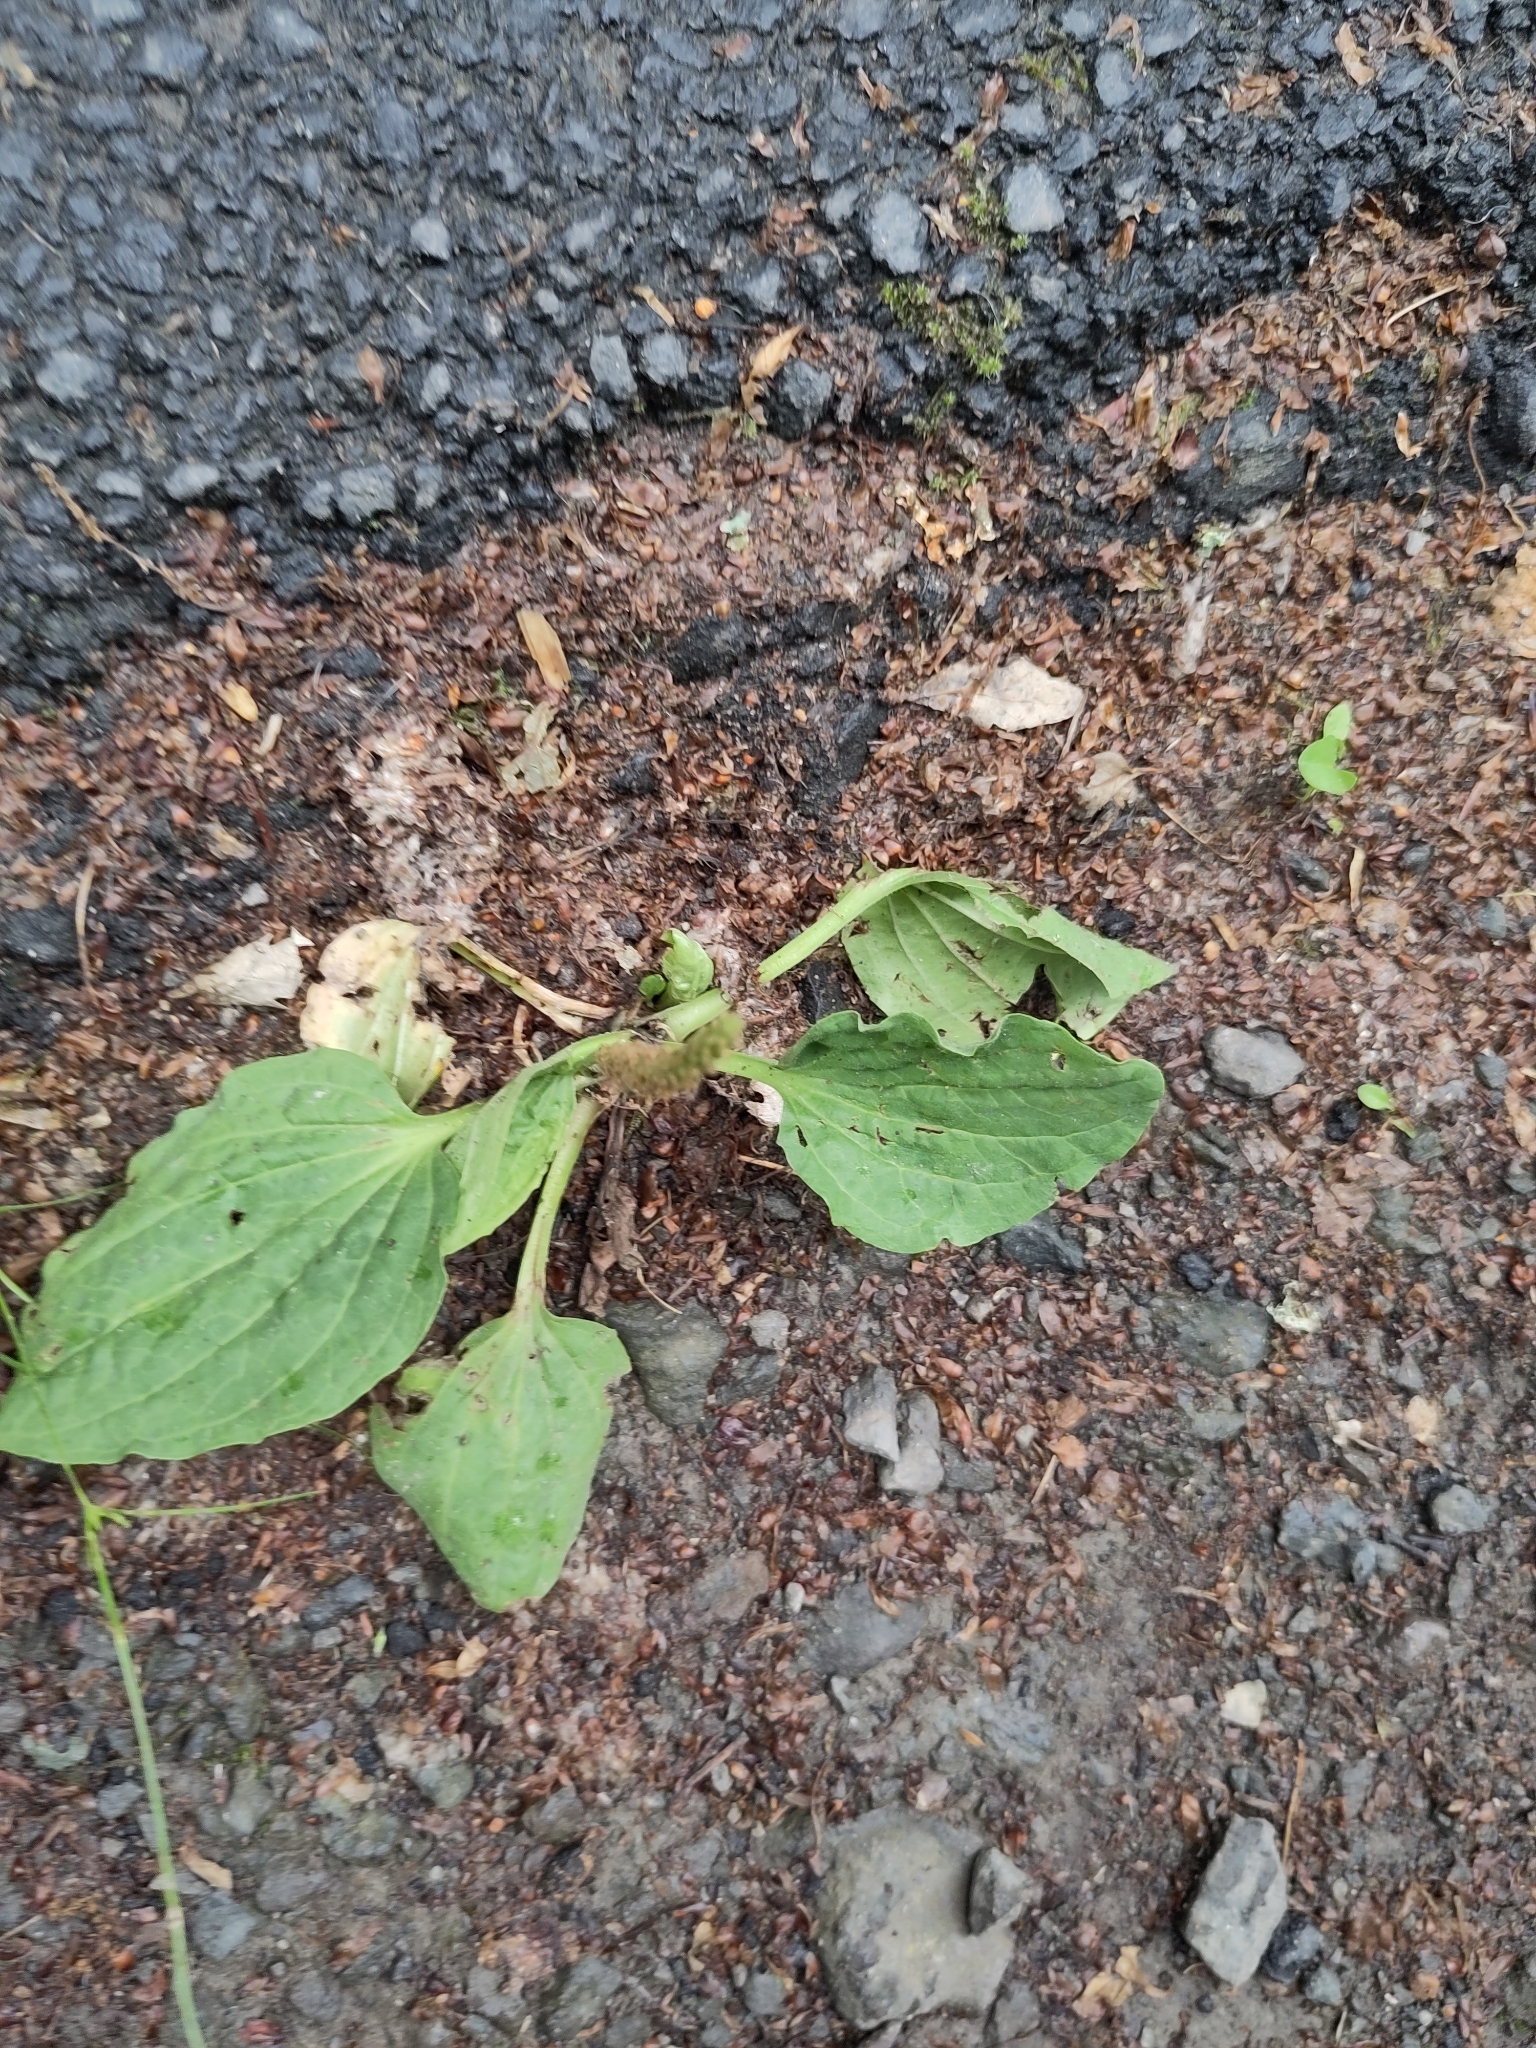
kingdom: Plantae
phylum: Tracheophyta
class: Magnoliopsida
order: Lamiales
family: Plantaginaceae
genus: Plantago
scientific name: Plantago major
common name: Common plantain
